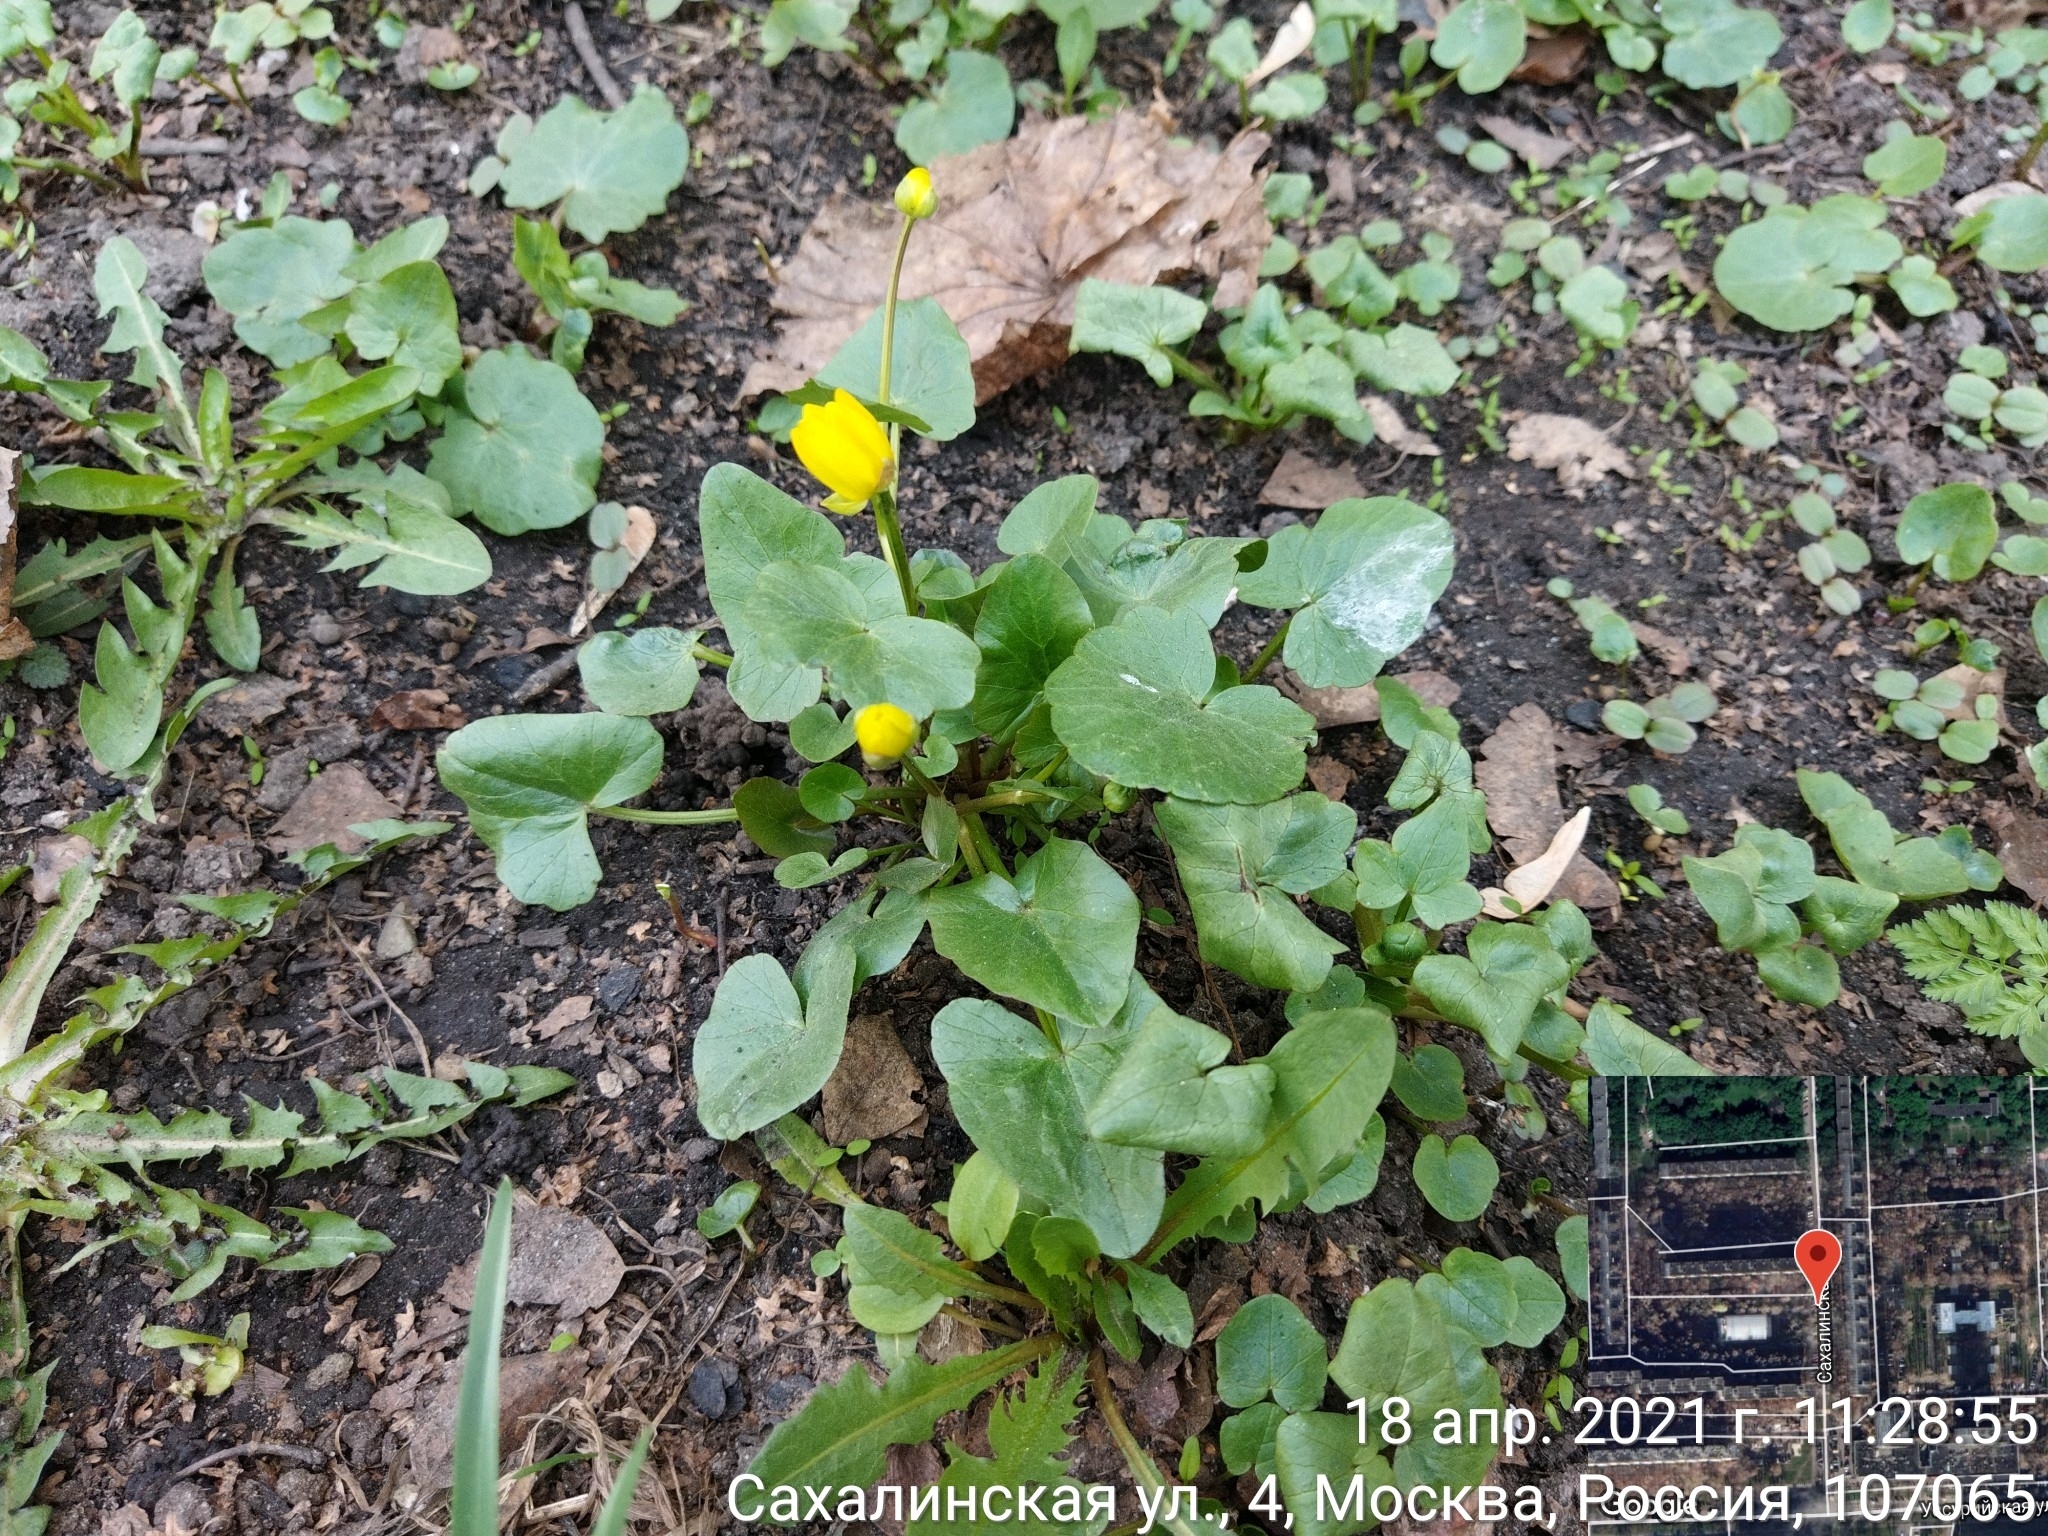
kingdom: Plantae
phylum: Tracheophyta
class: Magnoliopsida
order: Ranunculales
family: Ranunculaceae
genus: Ficaria
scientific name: Ficaria verna
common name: Lesser celandine
